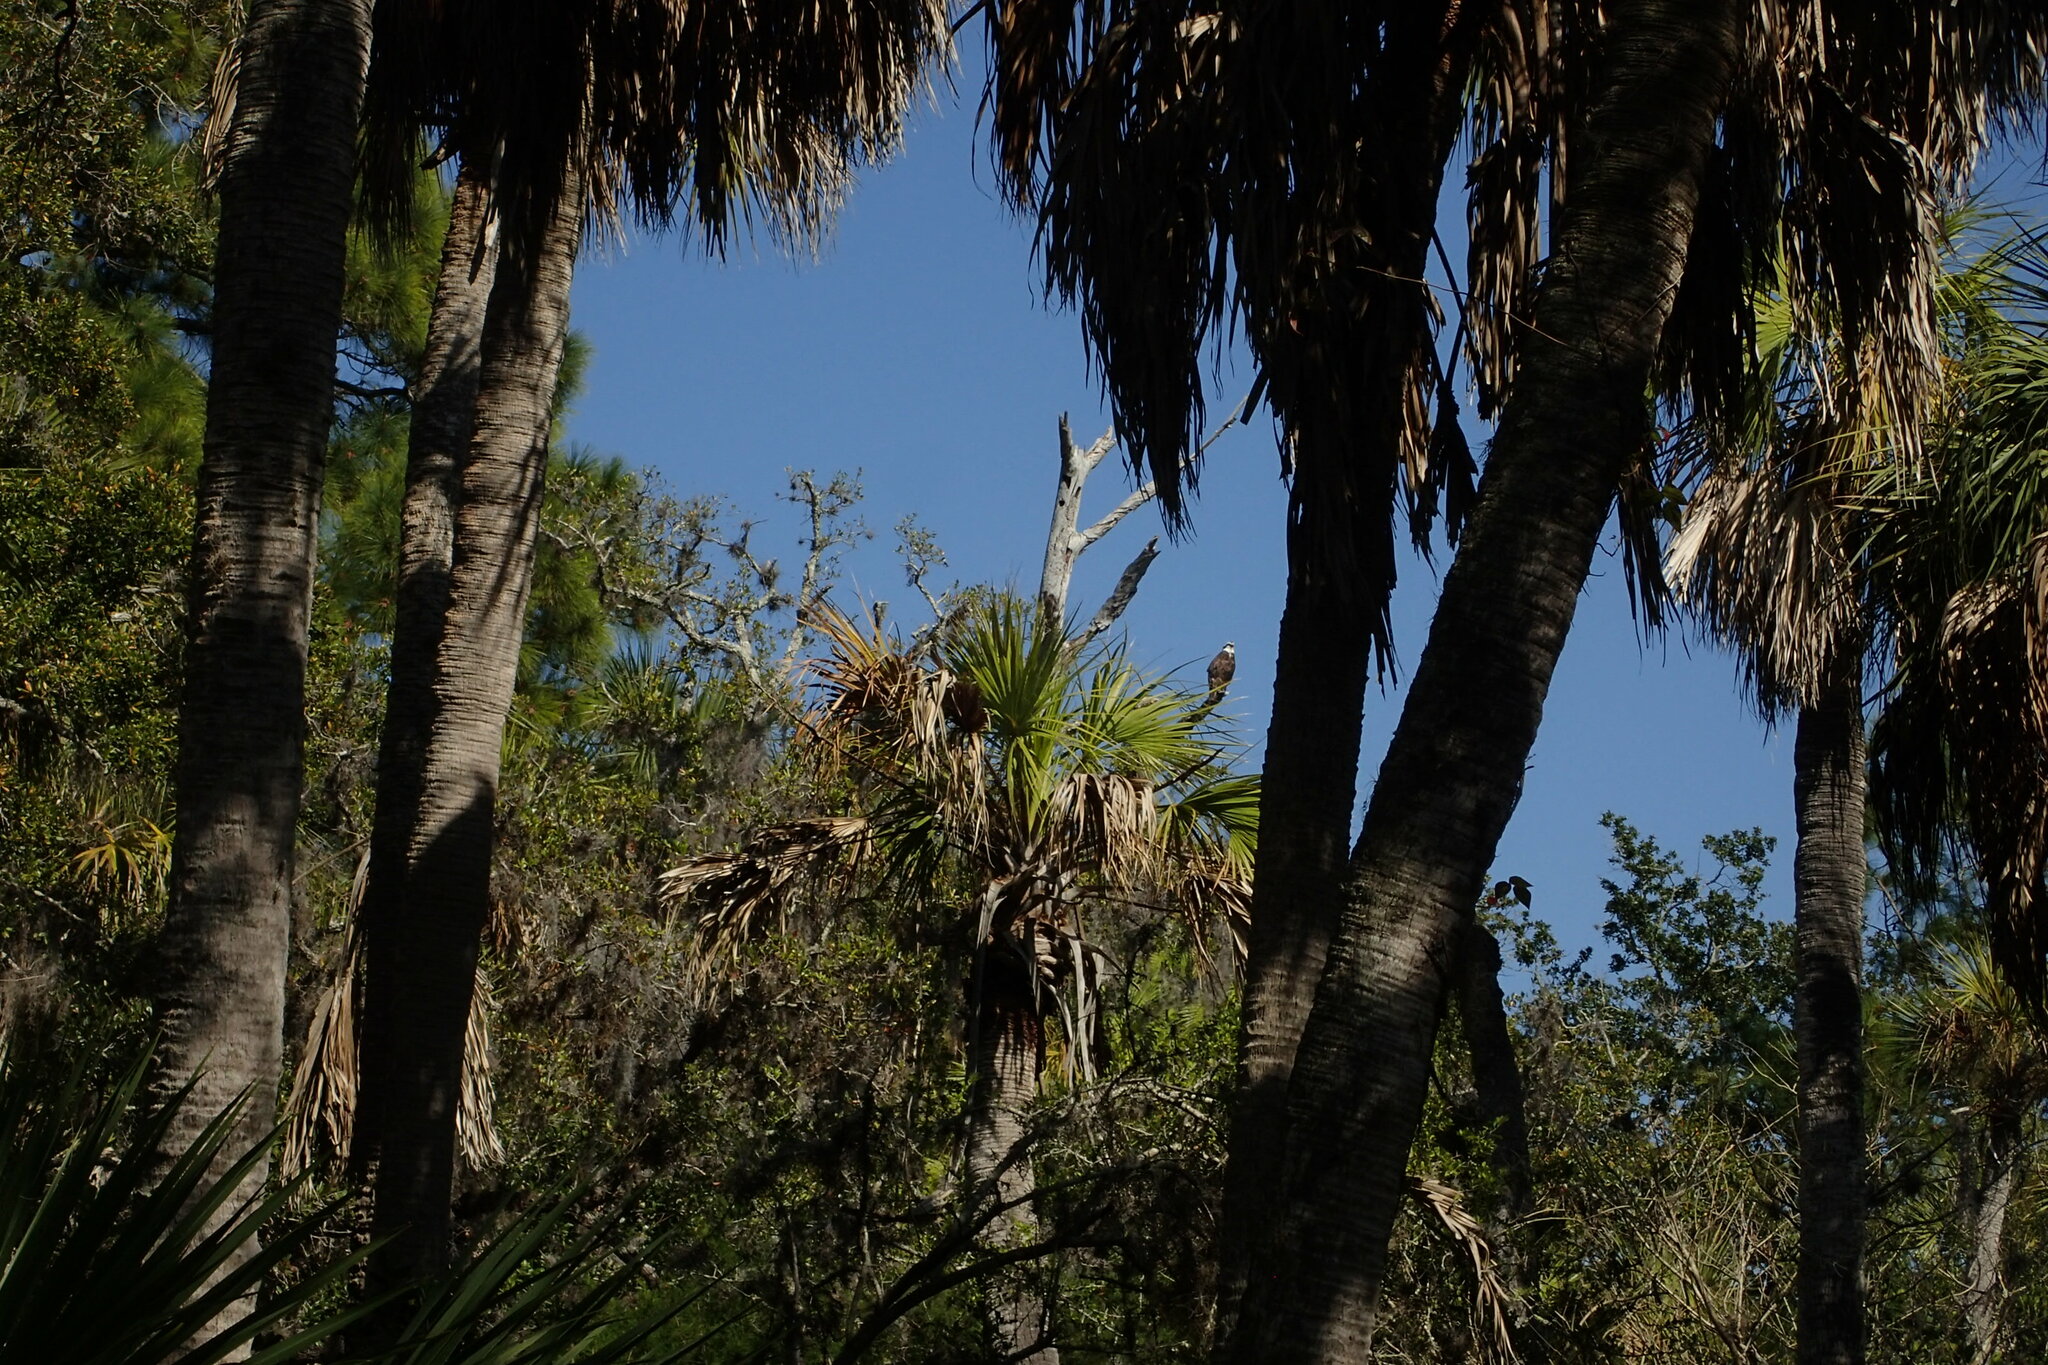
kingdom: Animalia
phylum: Chordata
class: Aves
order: Accipitriformes
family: Pandionidae
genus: Pandion
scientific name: Pandion haliaetus
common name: Osprey
